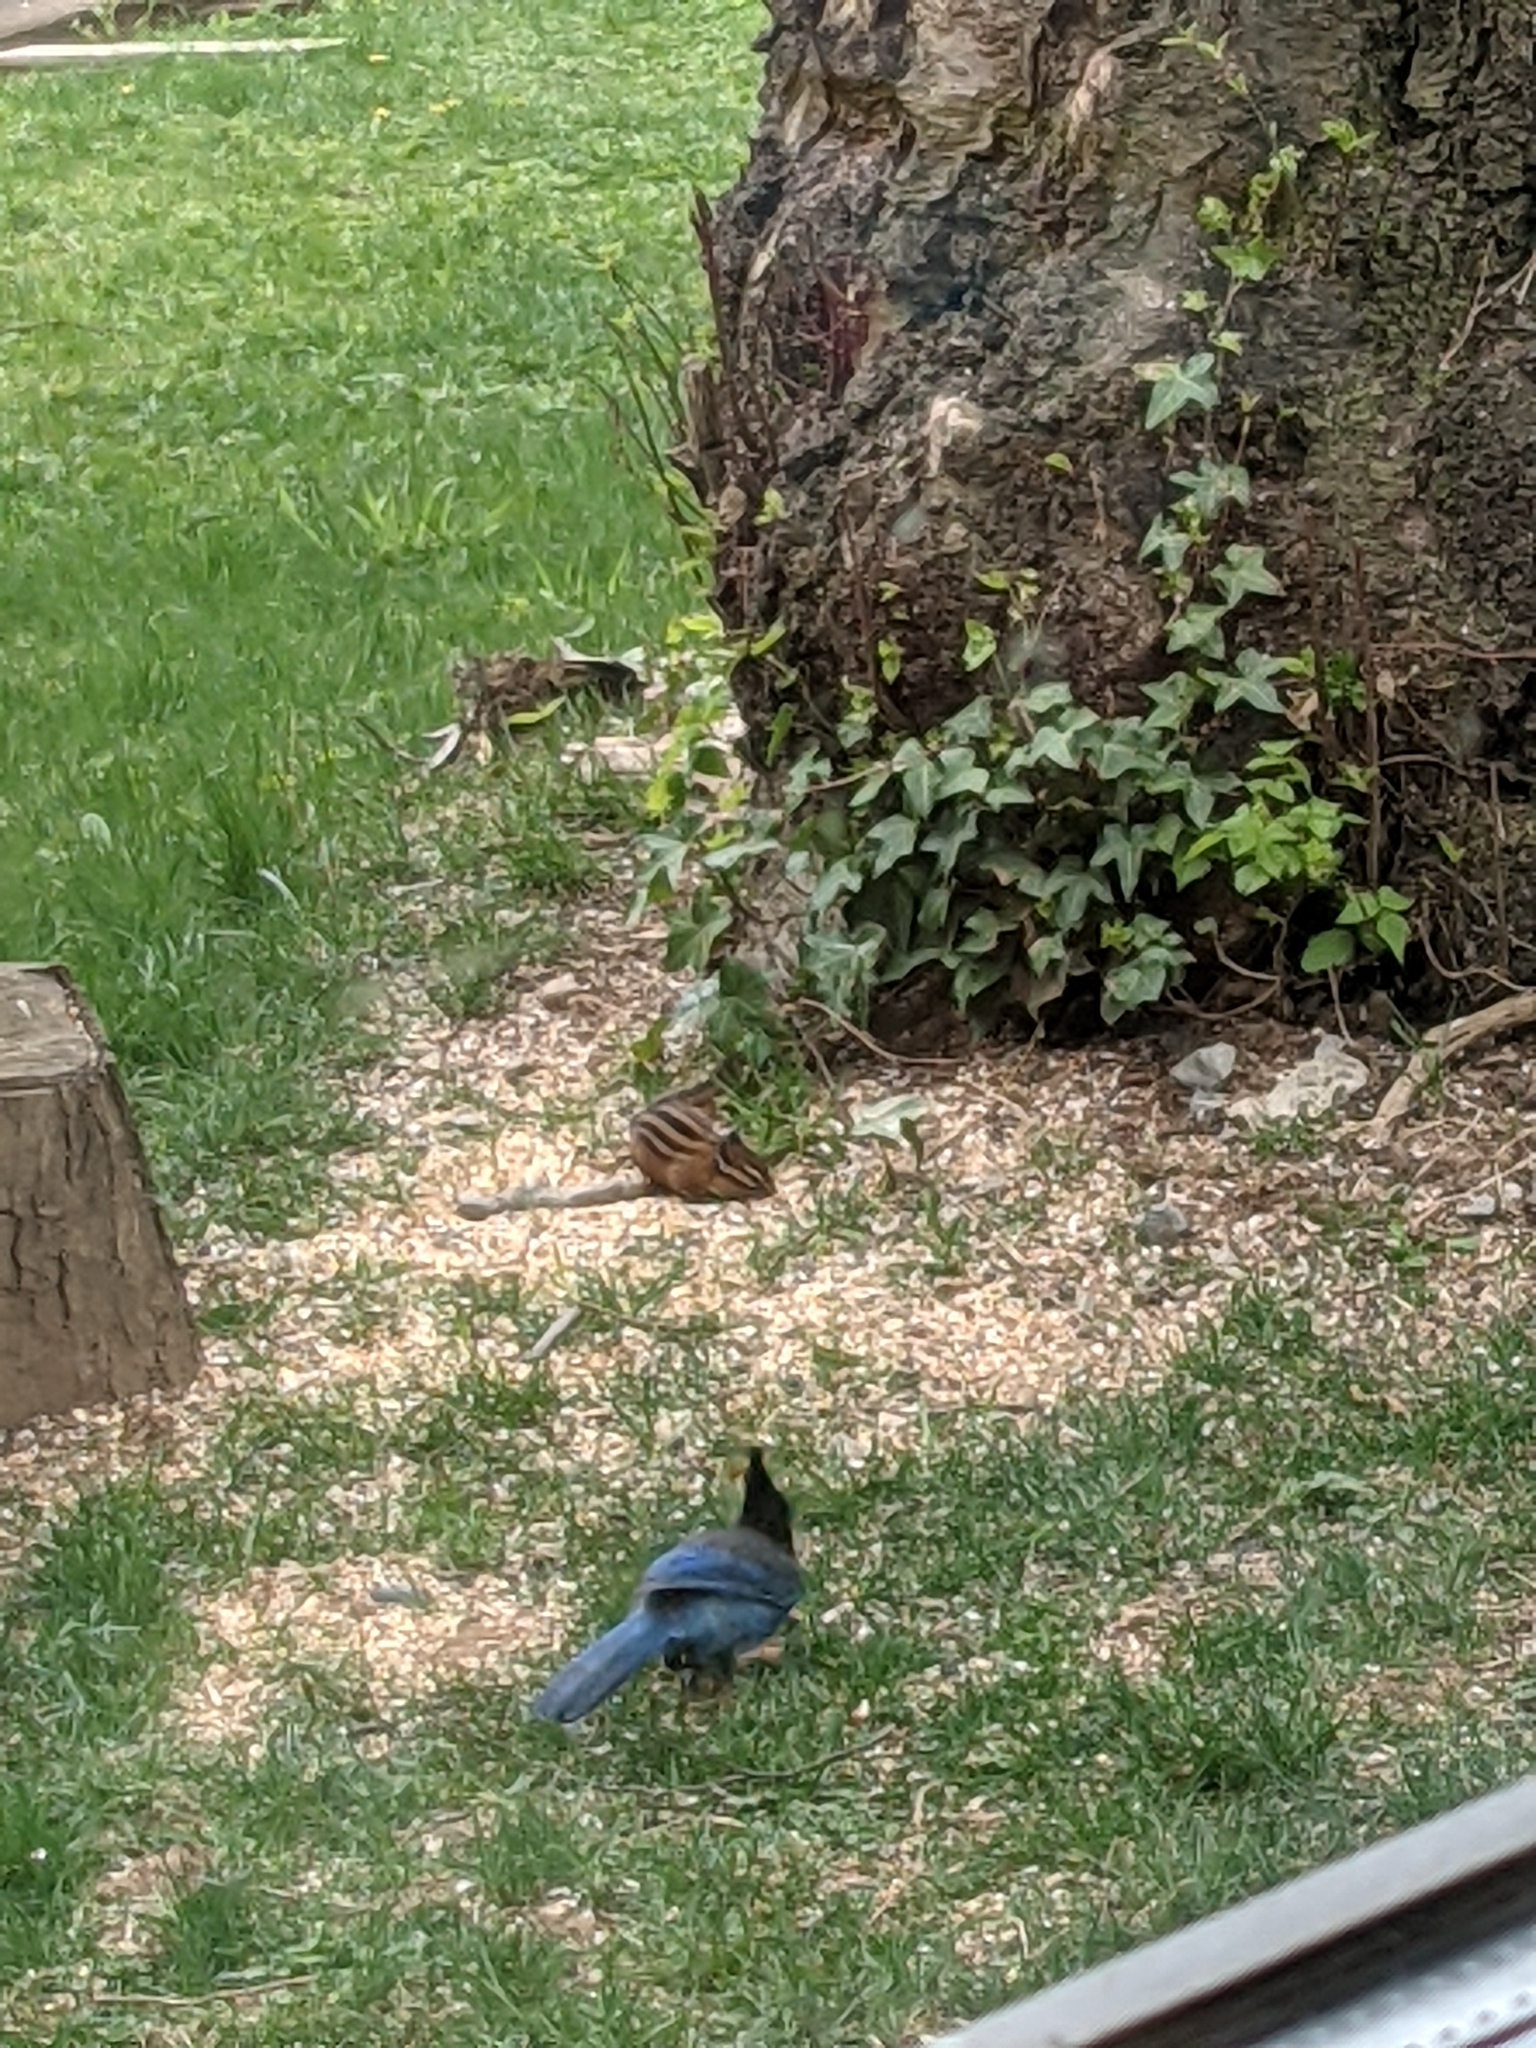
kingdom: Animalia
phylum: Chordata
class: Mammalia
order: Rodentia
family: Sciuridae
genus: Tamias
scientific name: Tamias townsendii
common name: Townsend's chipmunk
